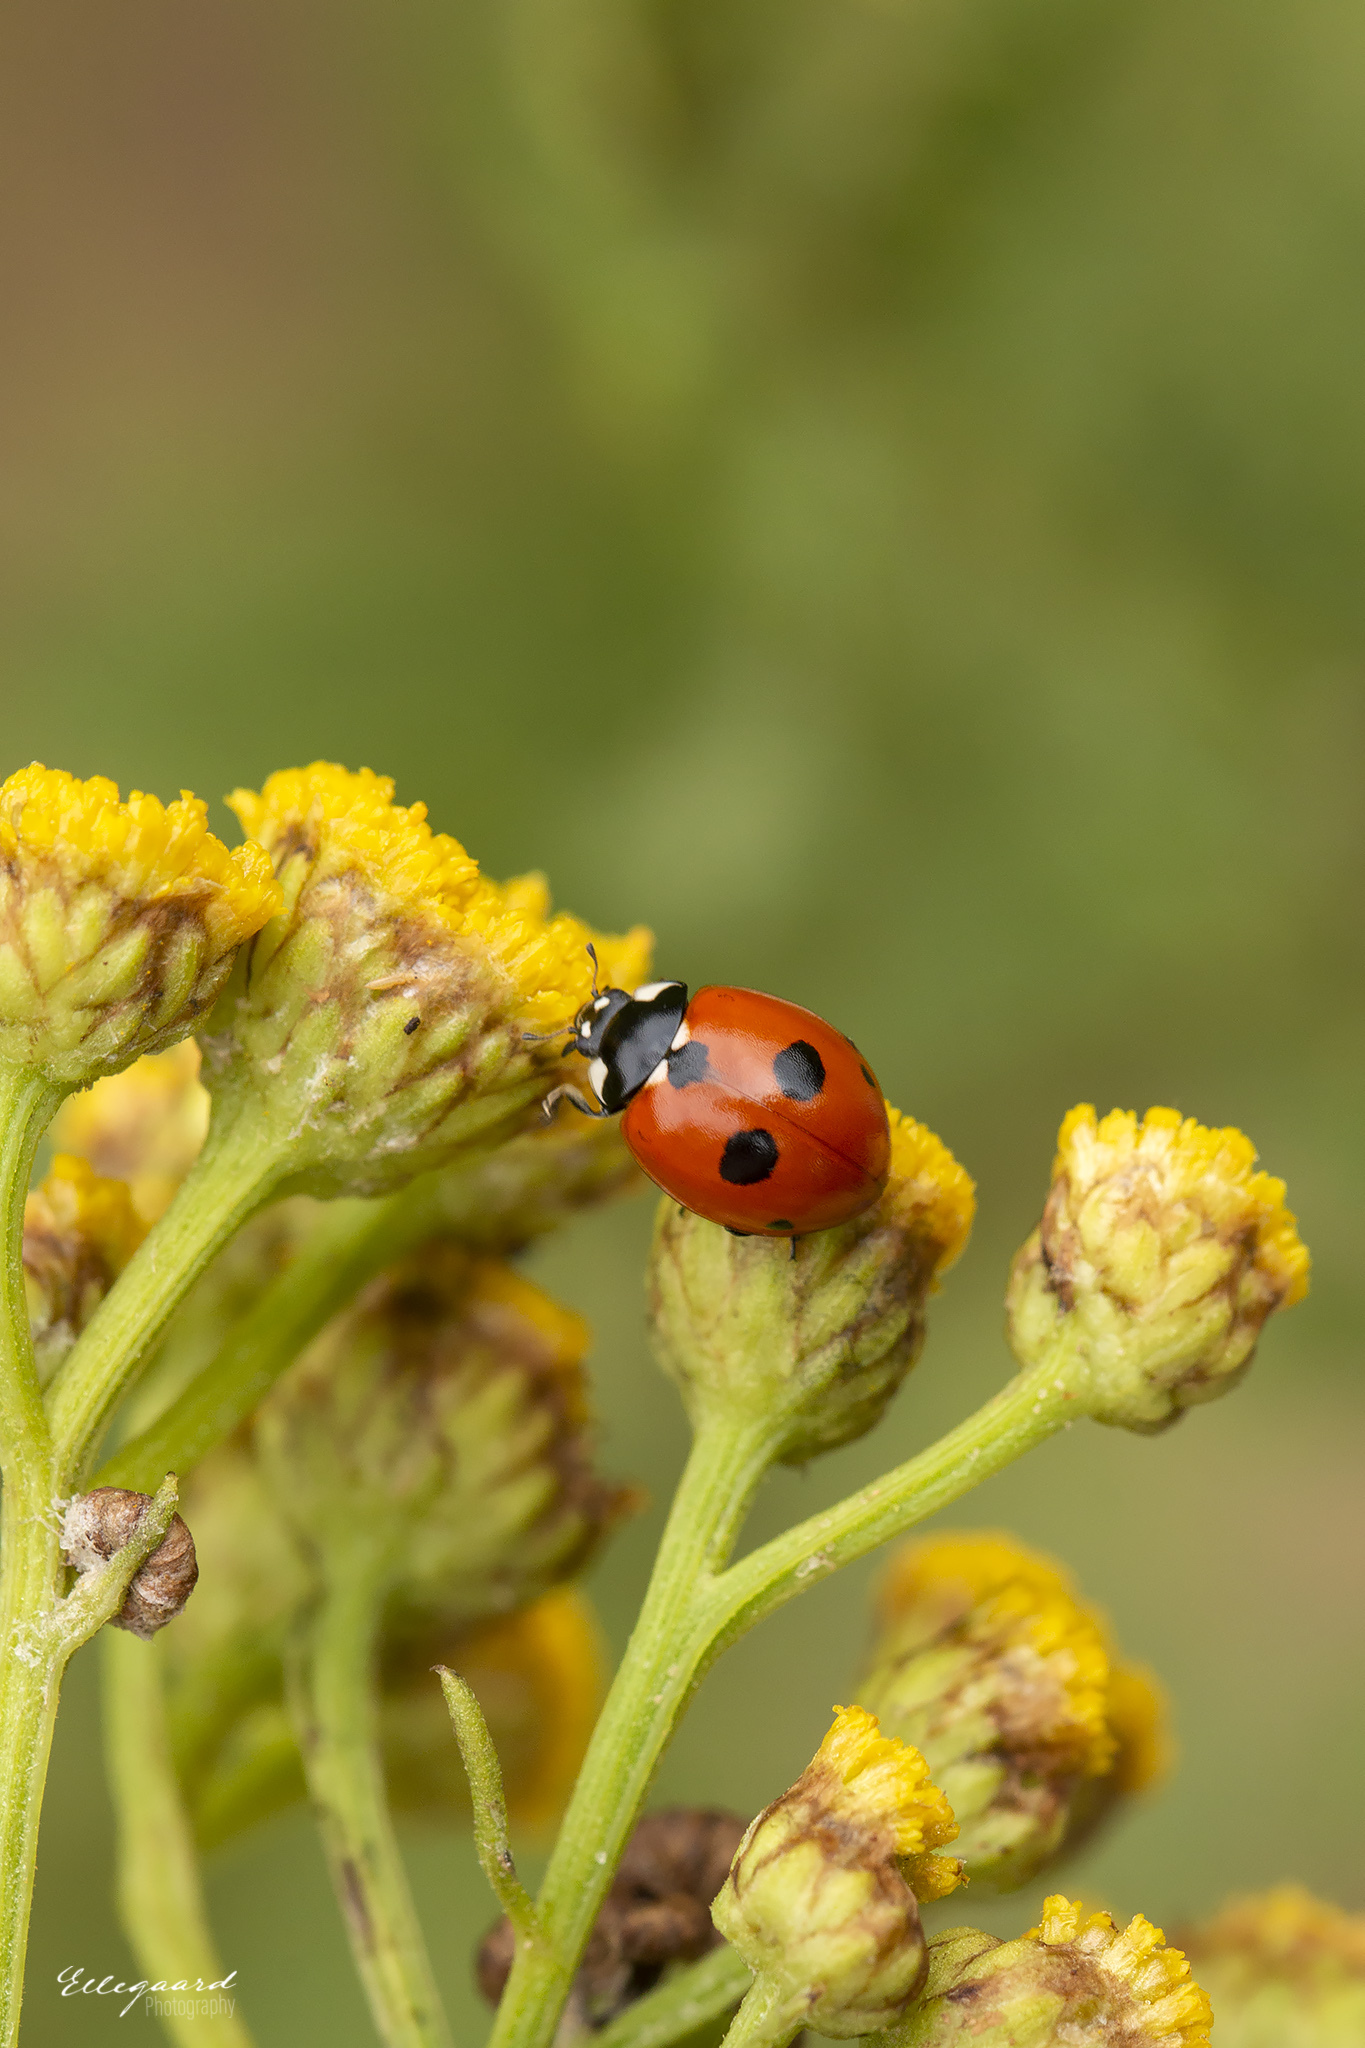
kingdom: Animalia
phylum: Arthropoda
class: Insecta
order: Coleoptera
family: Coccinellidae
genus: Coccinella
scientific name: Coccinella quinquepunctata
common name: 5-spot ladybird
